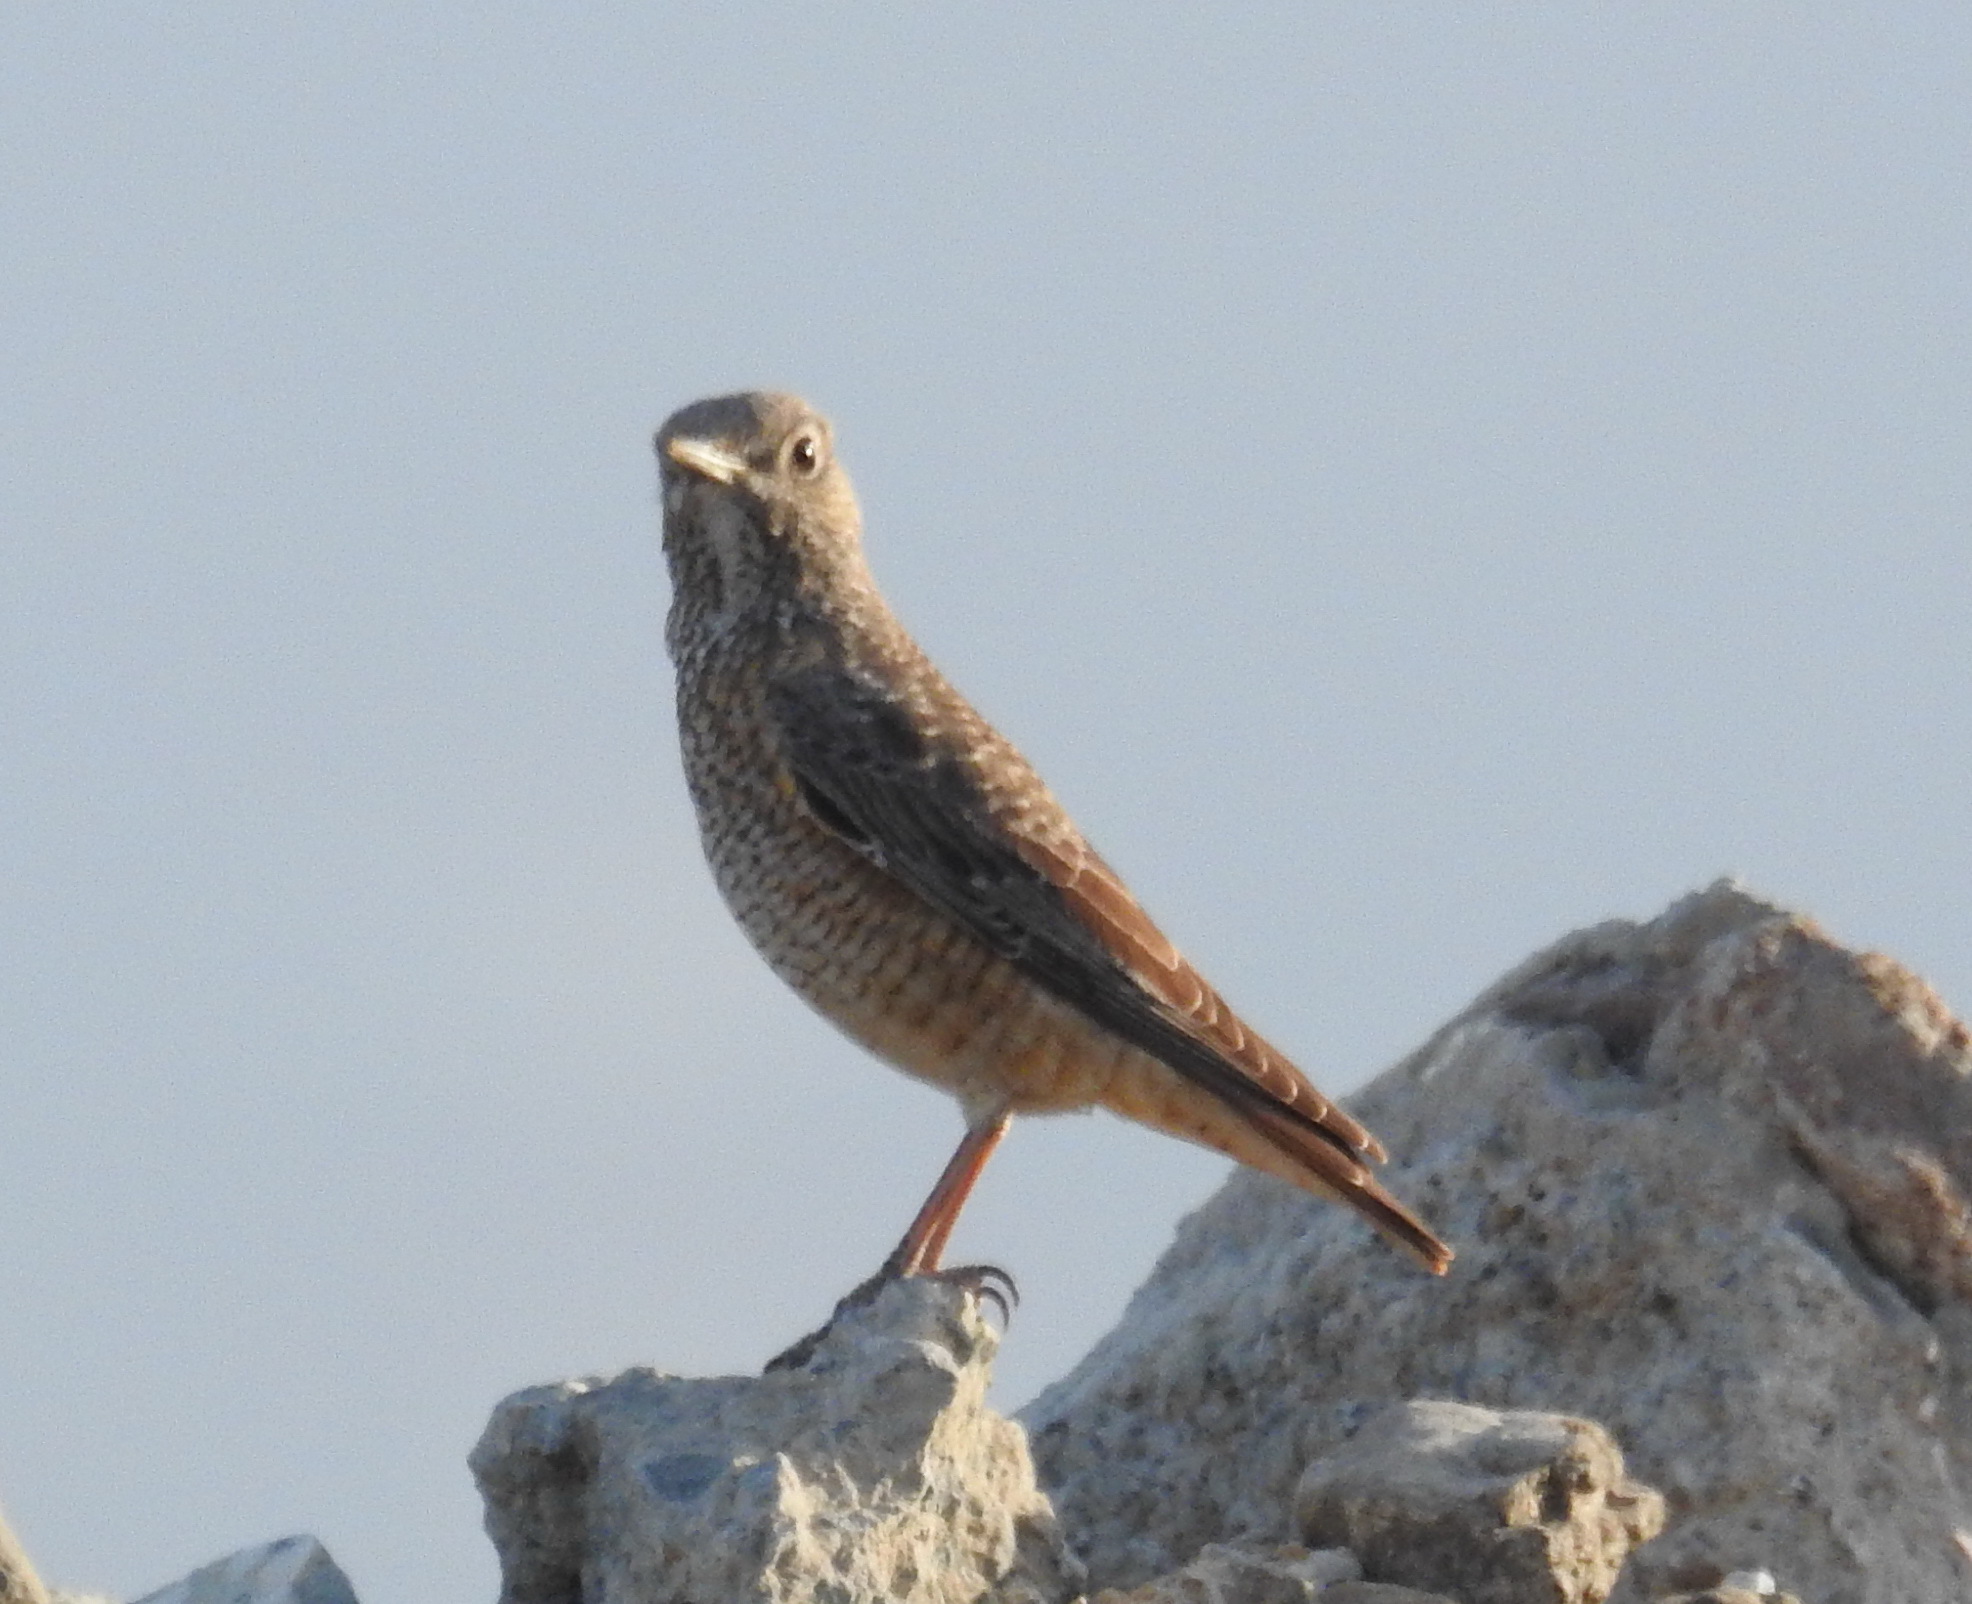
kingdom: Animalia
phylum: Chordata
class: Aves
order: Passeriformes
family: Muscicapidae
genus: Monticola
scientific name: Monticola saxatilis
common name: Rufous-tailed rock thrush
